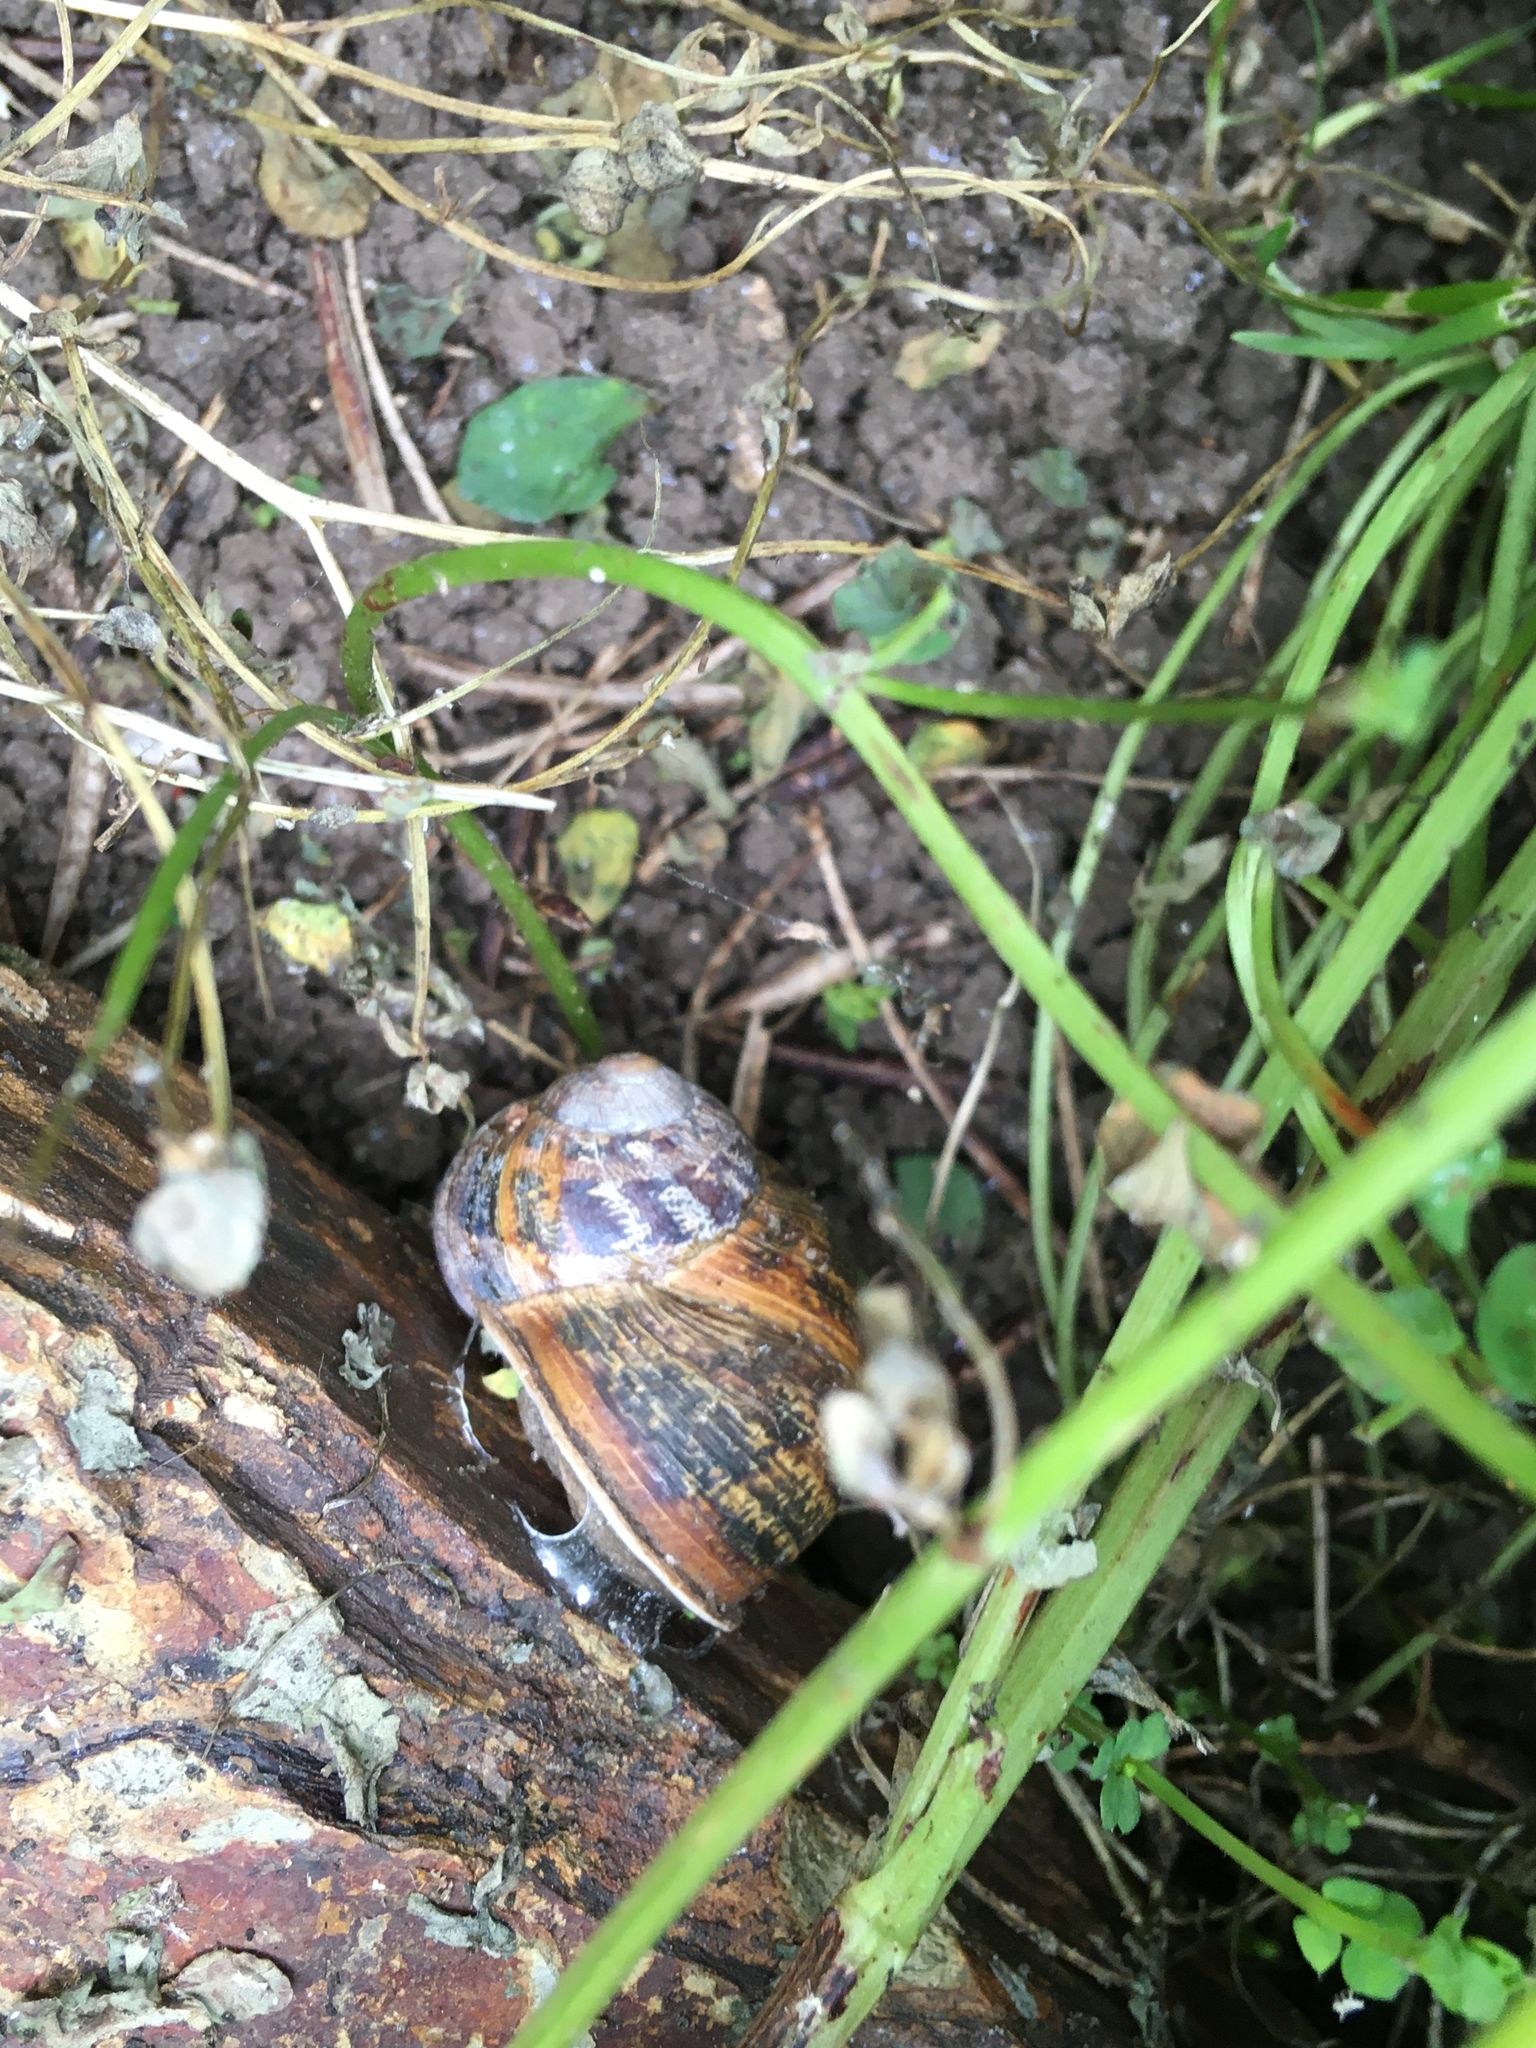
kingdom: Animalia
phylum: Mollusca
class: Gastropoda
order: Stylommatophora
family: Helicidae
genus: Cornu
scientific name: Cornu aspersum
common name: Brown garden snail
